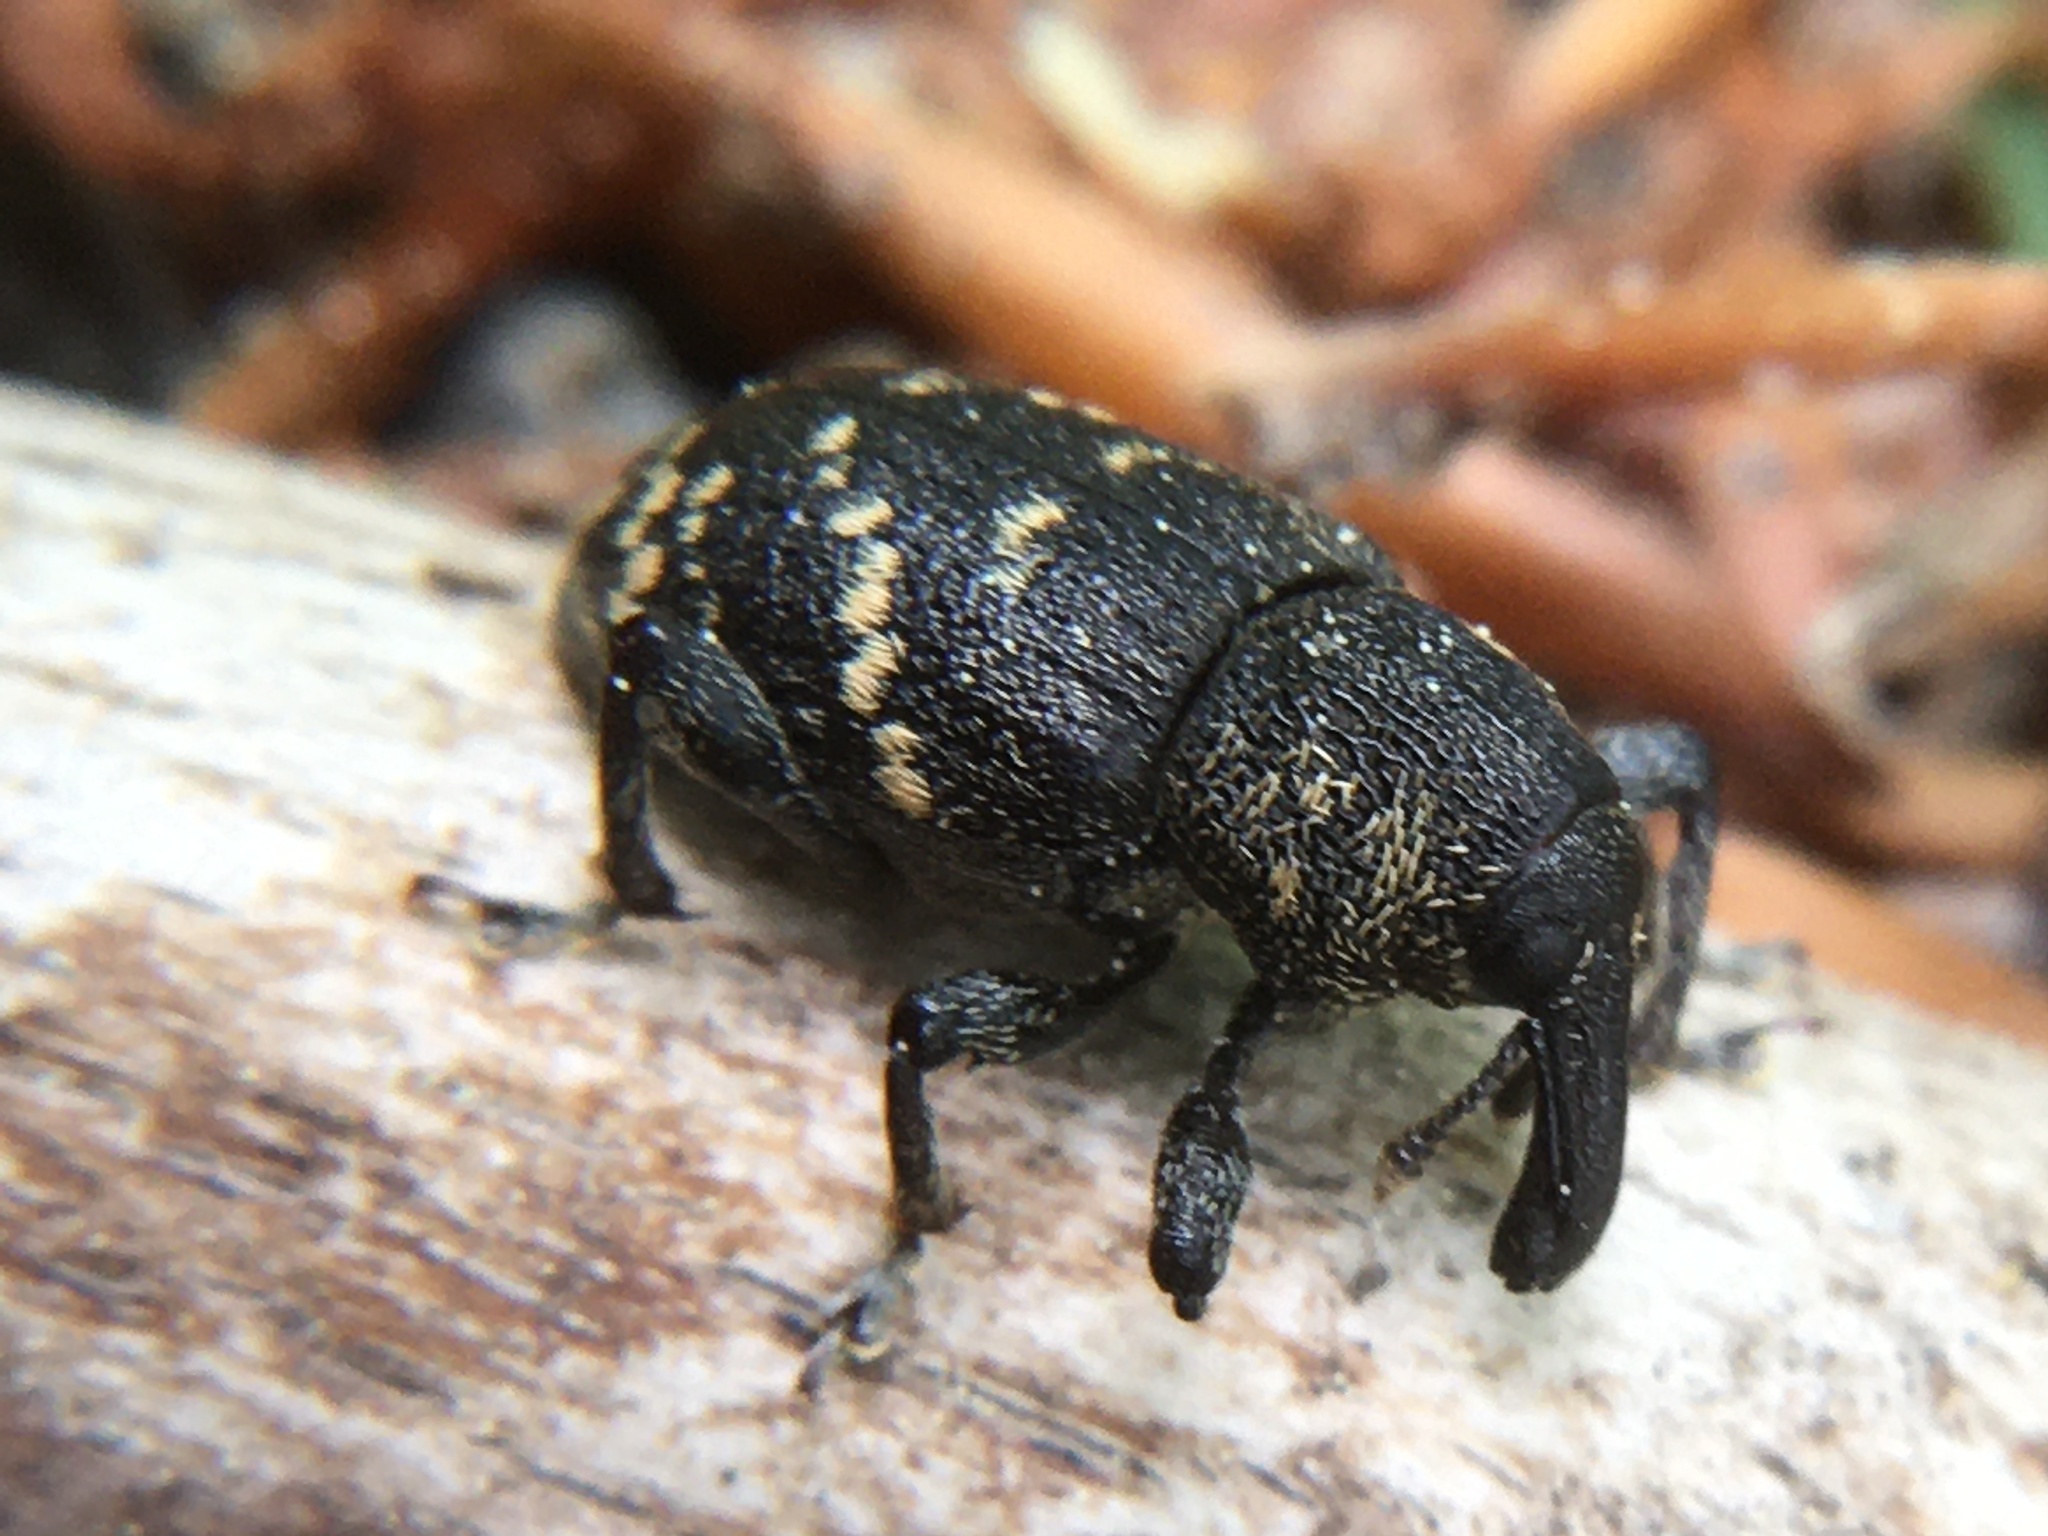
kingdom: Animalia
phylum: Arthropoda
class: Insecta
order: Coleoptera
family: Curculionidae
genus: Hylobius
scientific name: Hylobius abietis
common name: Large pine weevil
